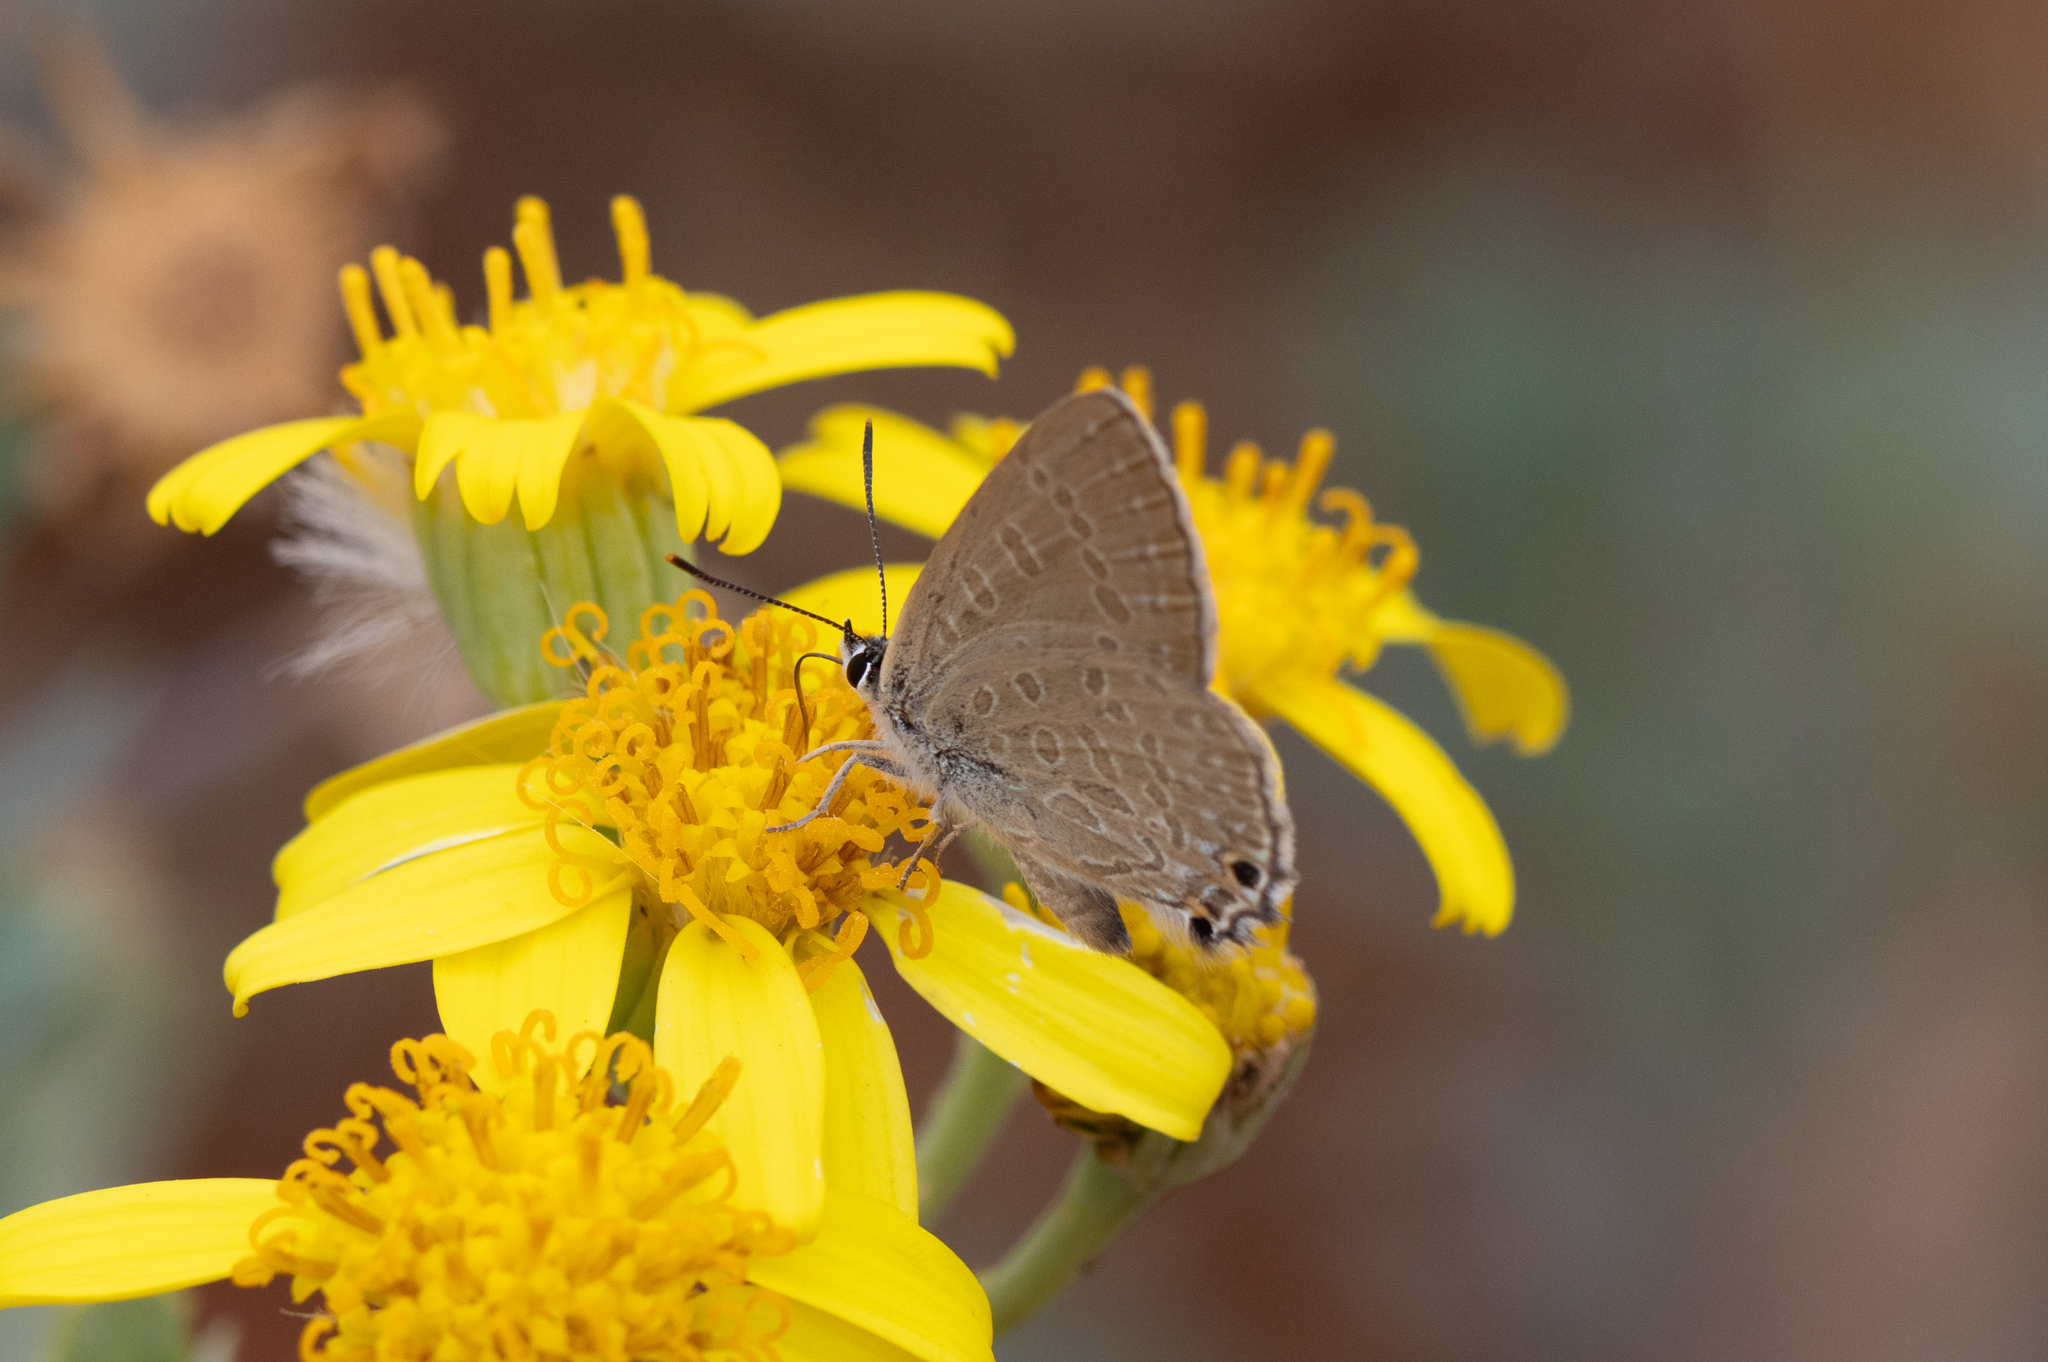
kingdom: Animalia
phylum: Arthropoda
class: Insecta
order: Lepidoptera
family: Lycaenidae
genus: Jalmenus
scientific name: Jalmenus icilius
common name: Amethyst hairstreak
